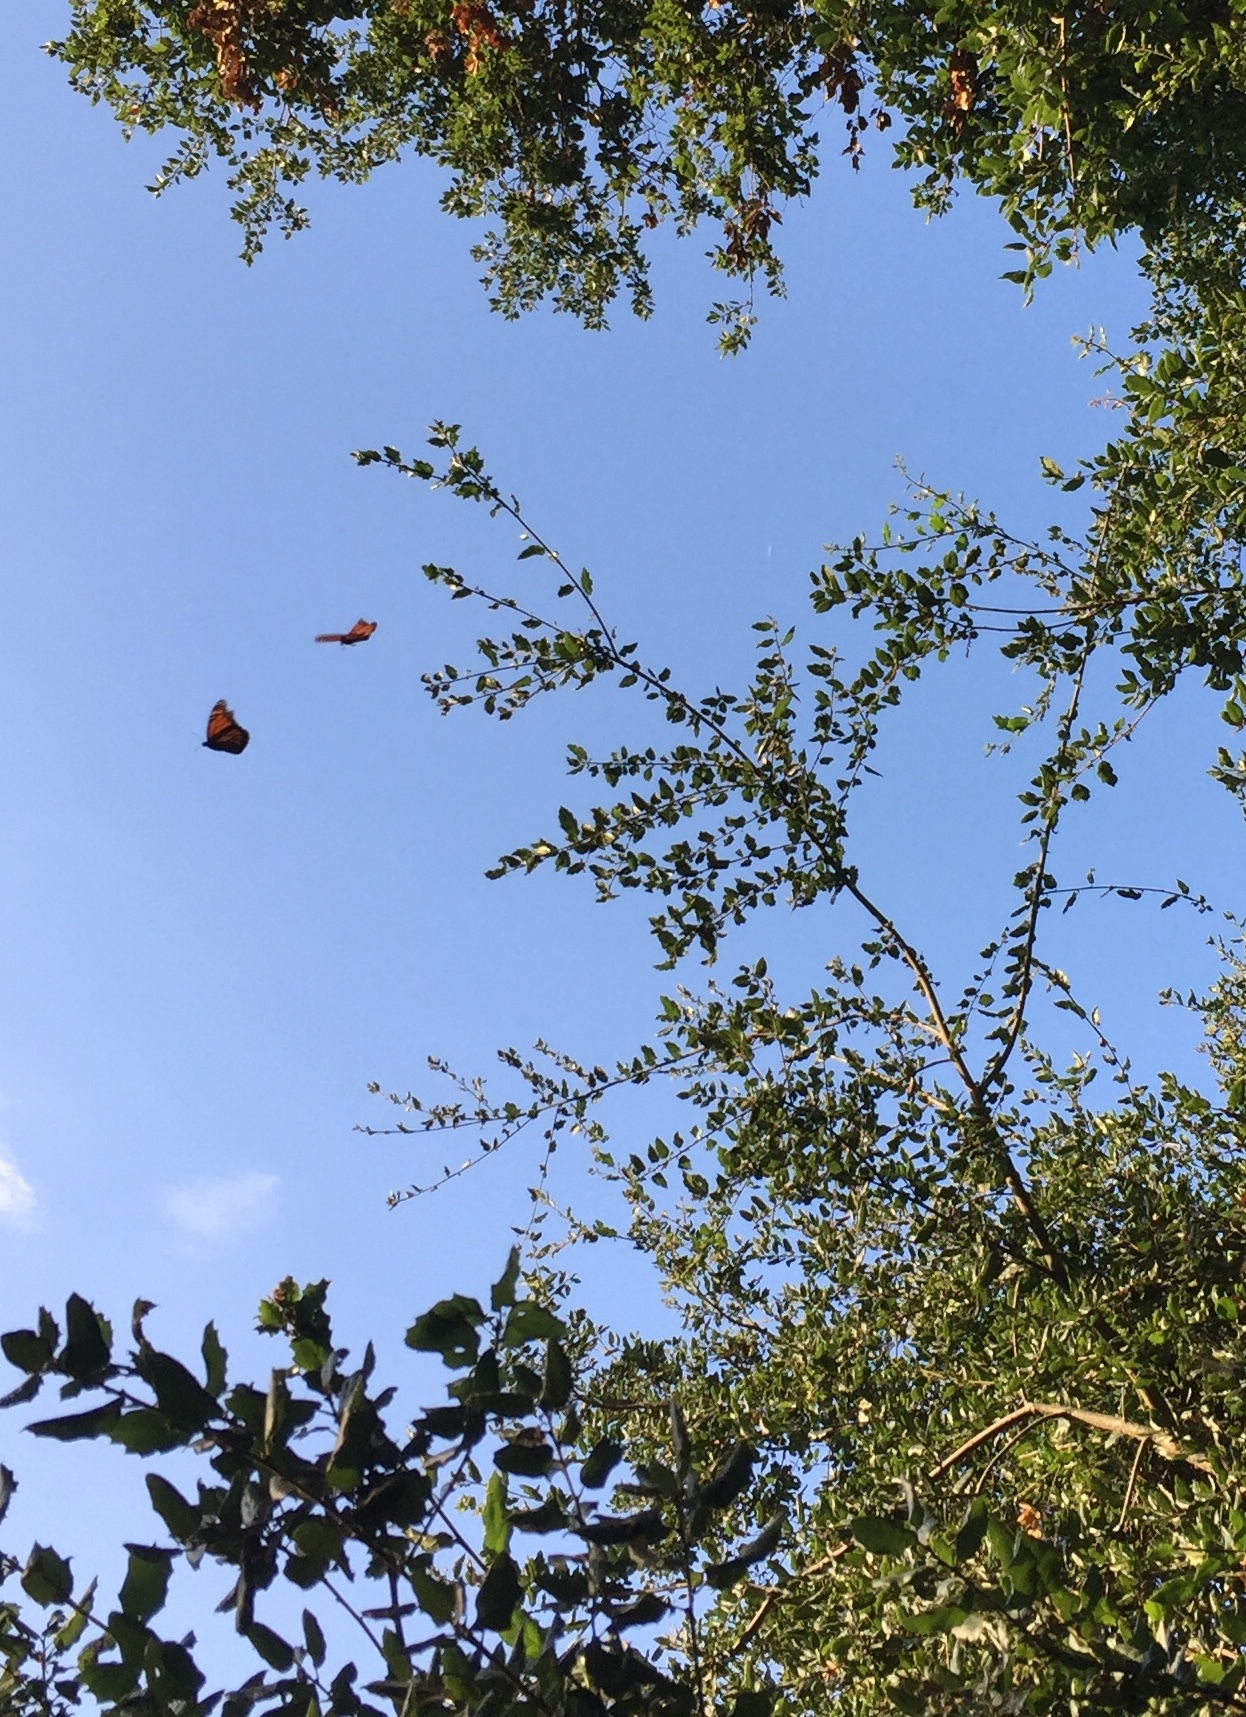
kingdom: Animalia
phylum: Arthropoda
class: Insecta
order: Lepidoptera
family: Nymphalidae
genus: Danaus
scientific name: Danaus plexippus
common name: Monarch
